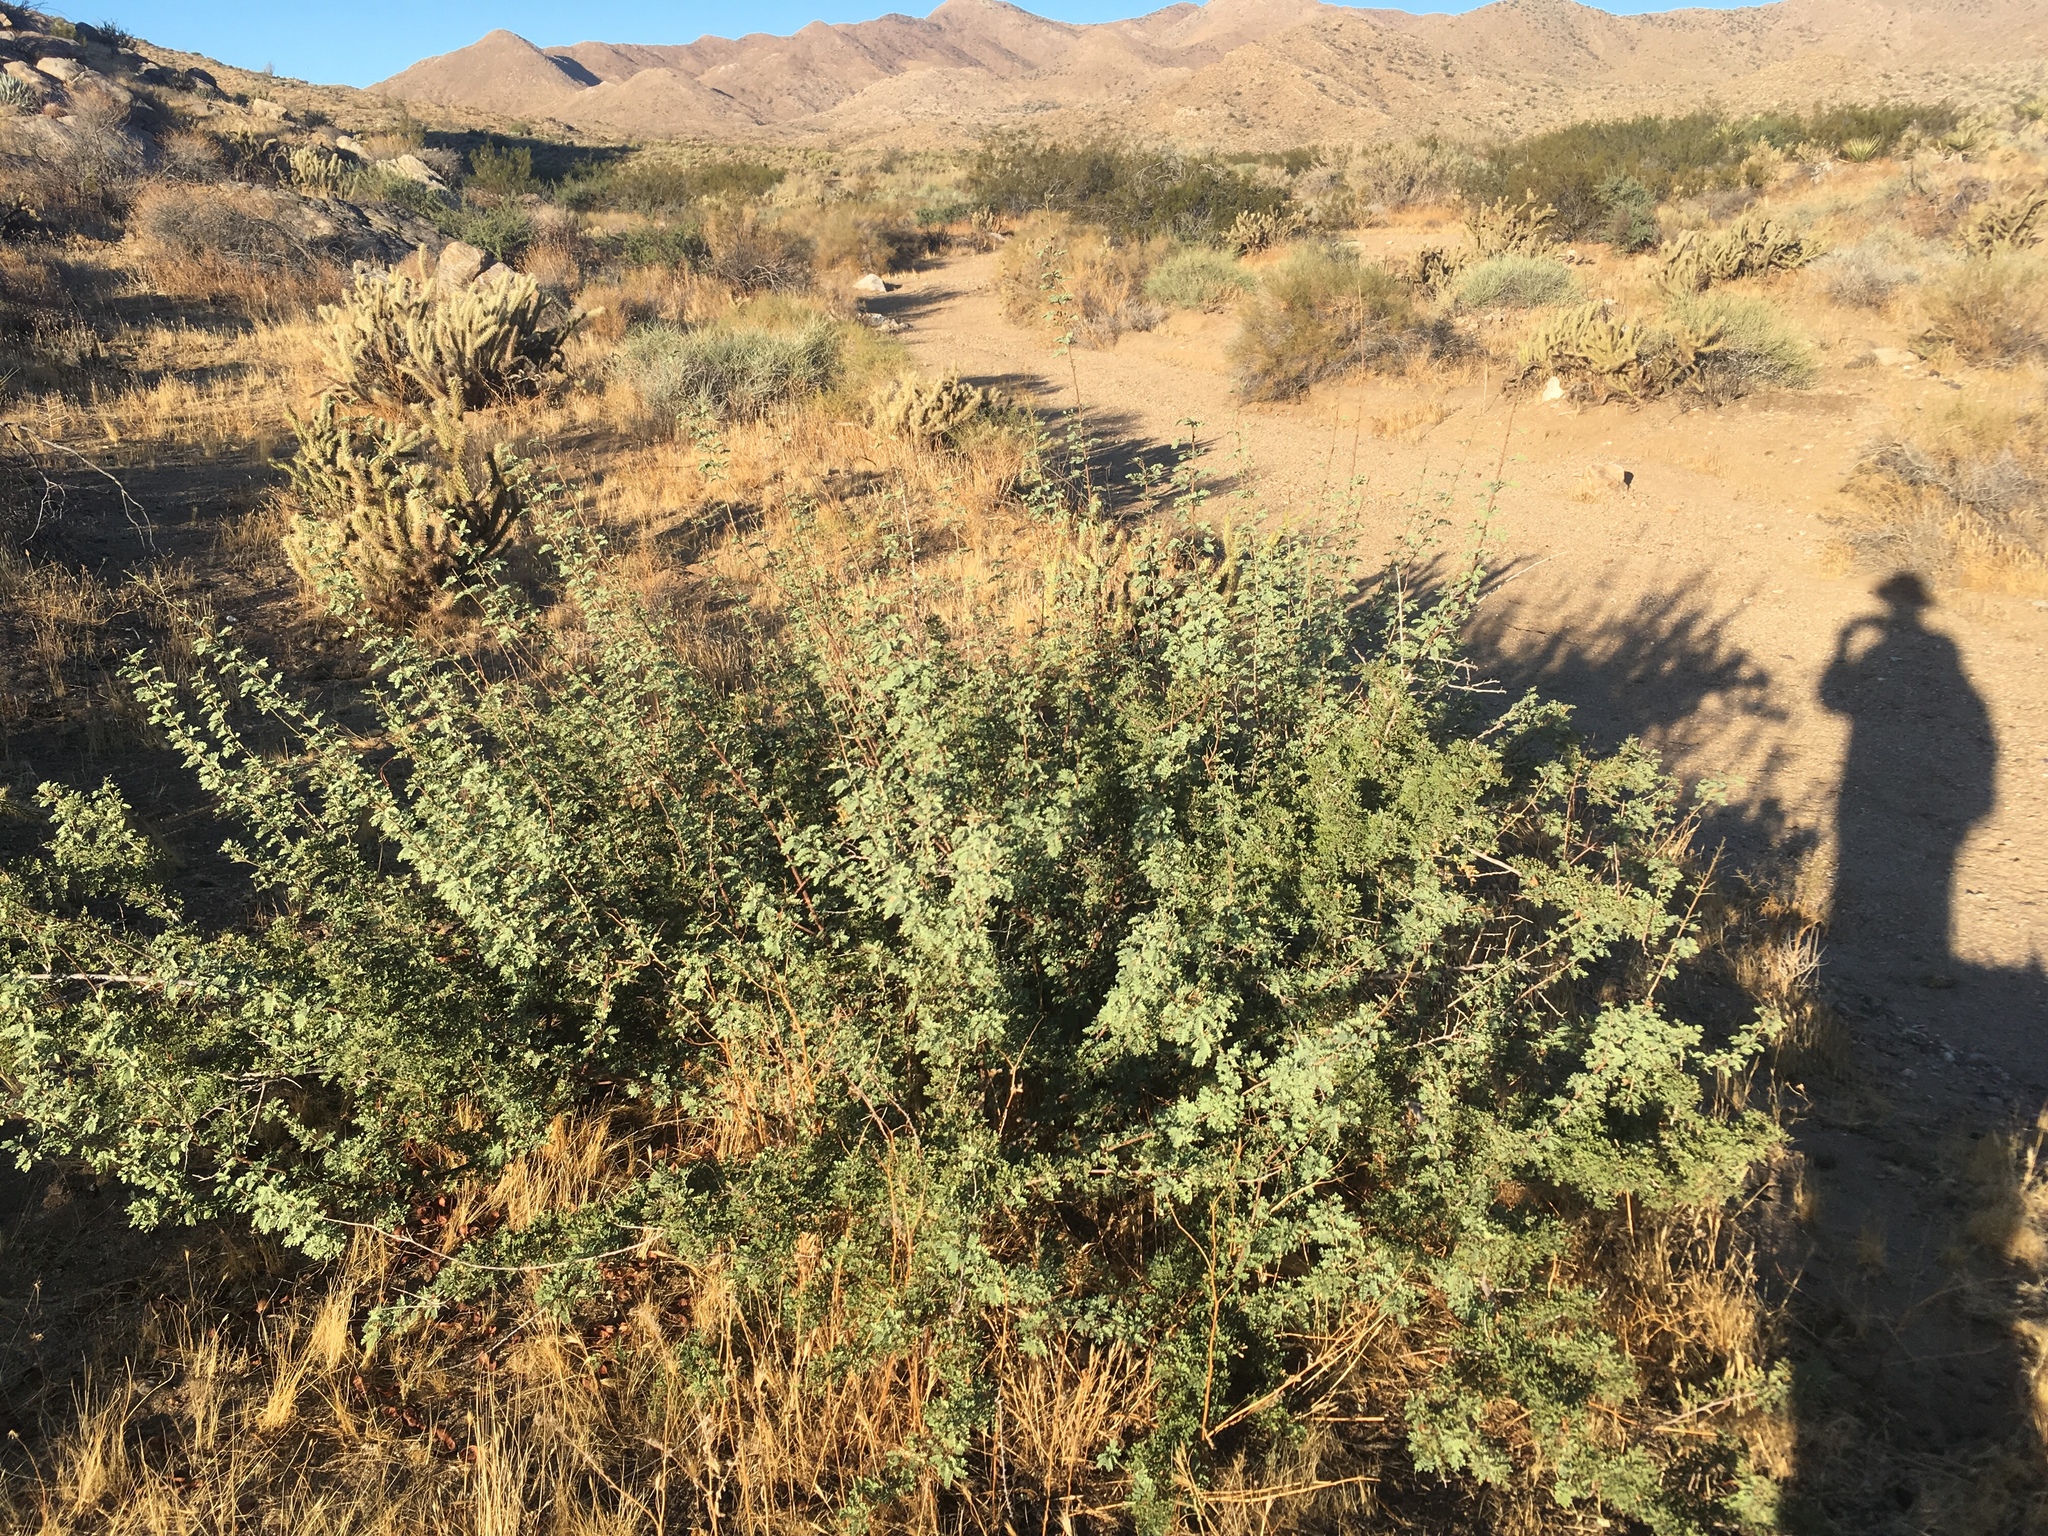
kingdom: Plantae
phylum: Tracheophyta
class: Magnoliopsida
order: Fabales
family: Fabaceae
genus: Senegalia
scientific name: Senegalia greggii
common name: Texas-mimosa
